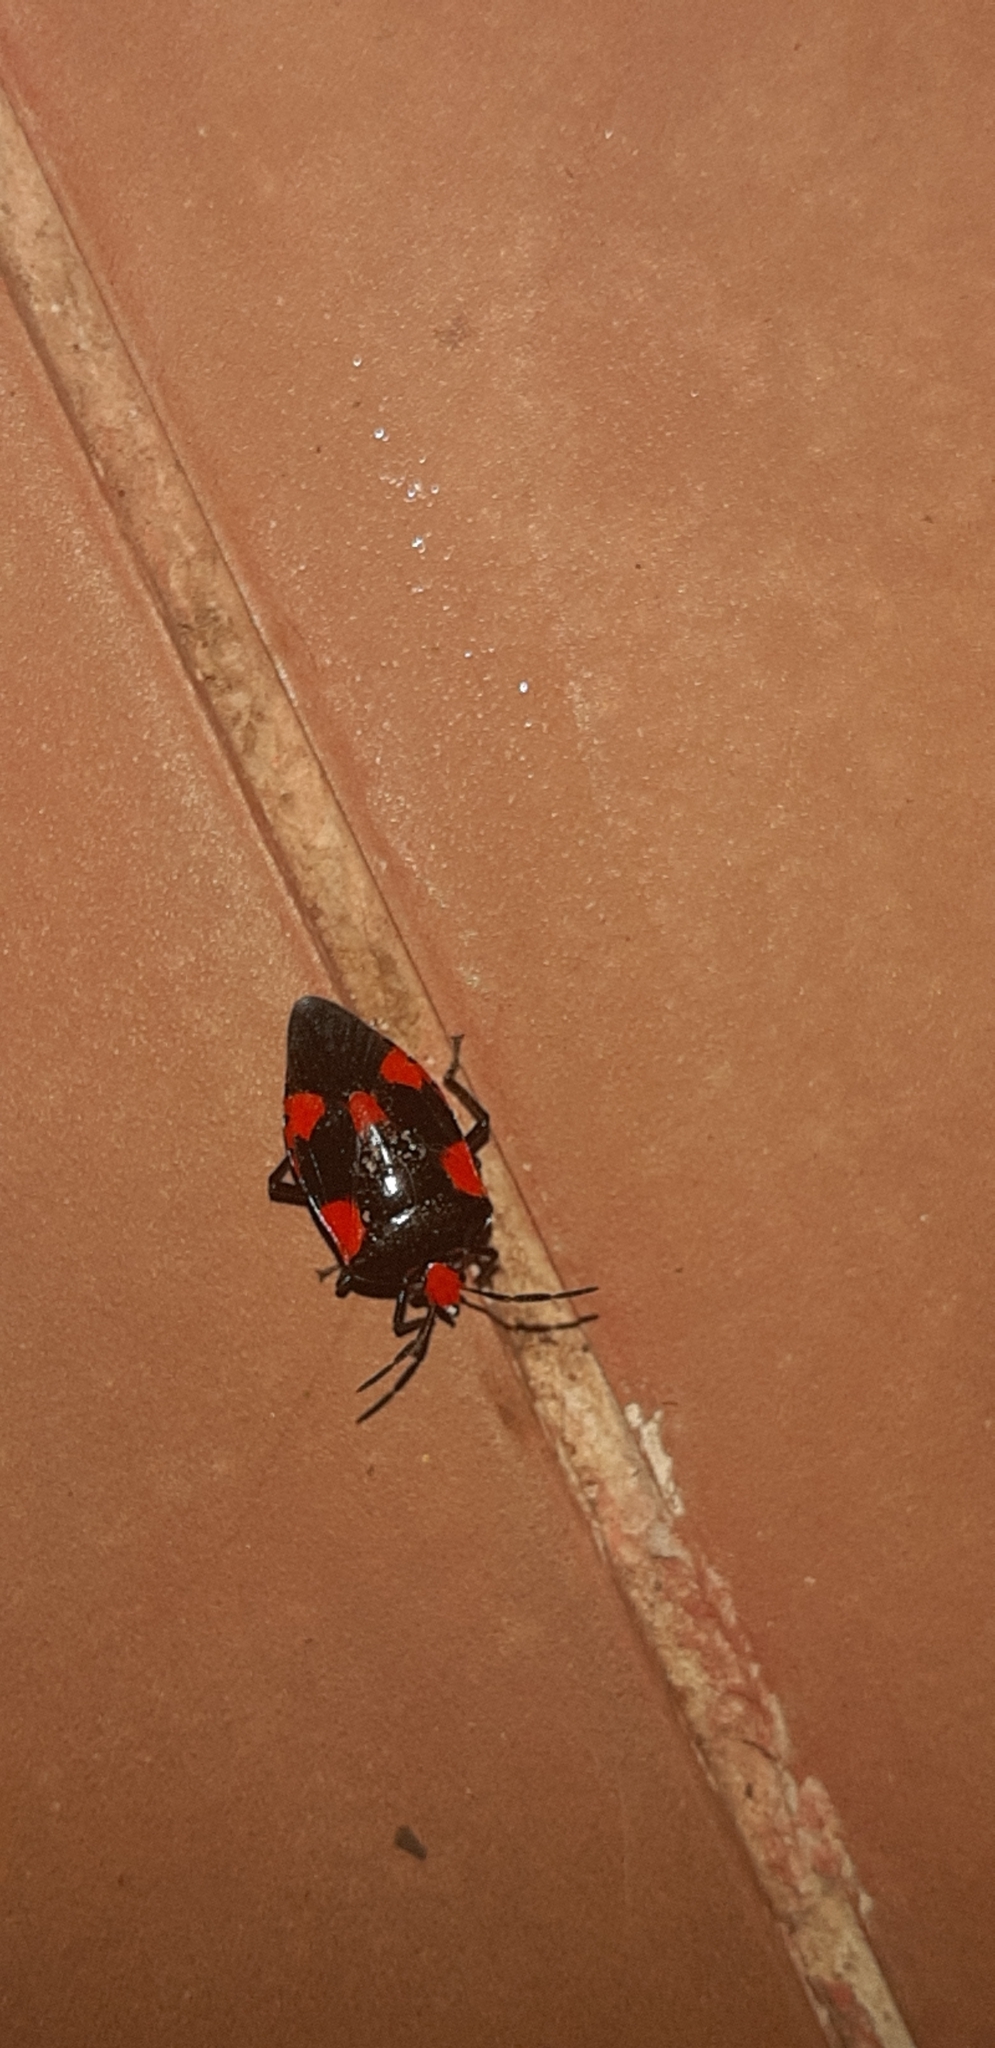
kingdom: Animalia
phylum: Arthropoda
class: Insecta
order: Hemiptera
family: Pentatomidae
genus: Arocera
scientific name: Arocera elongata
